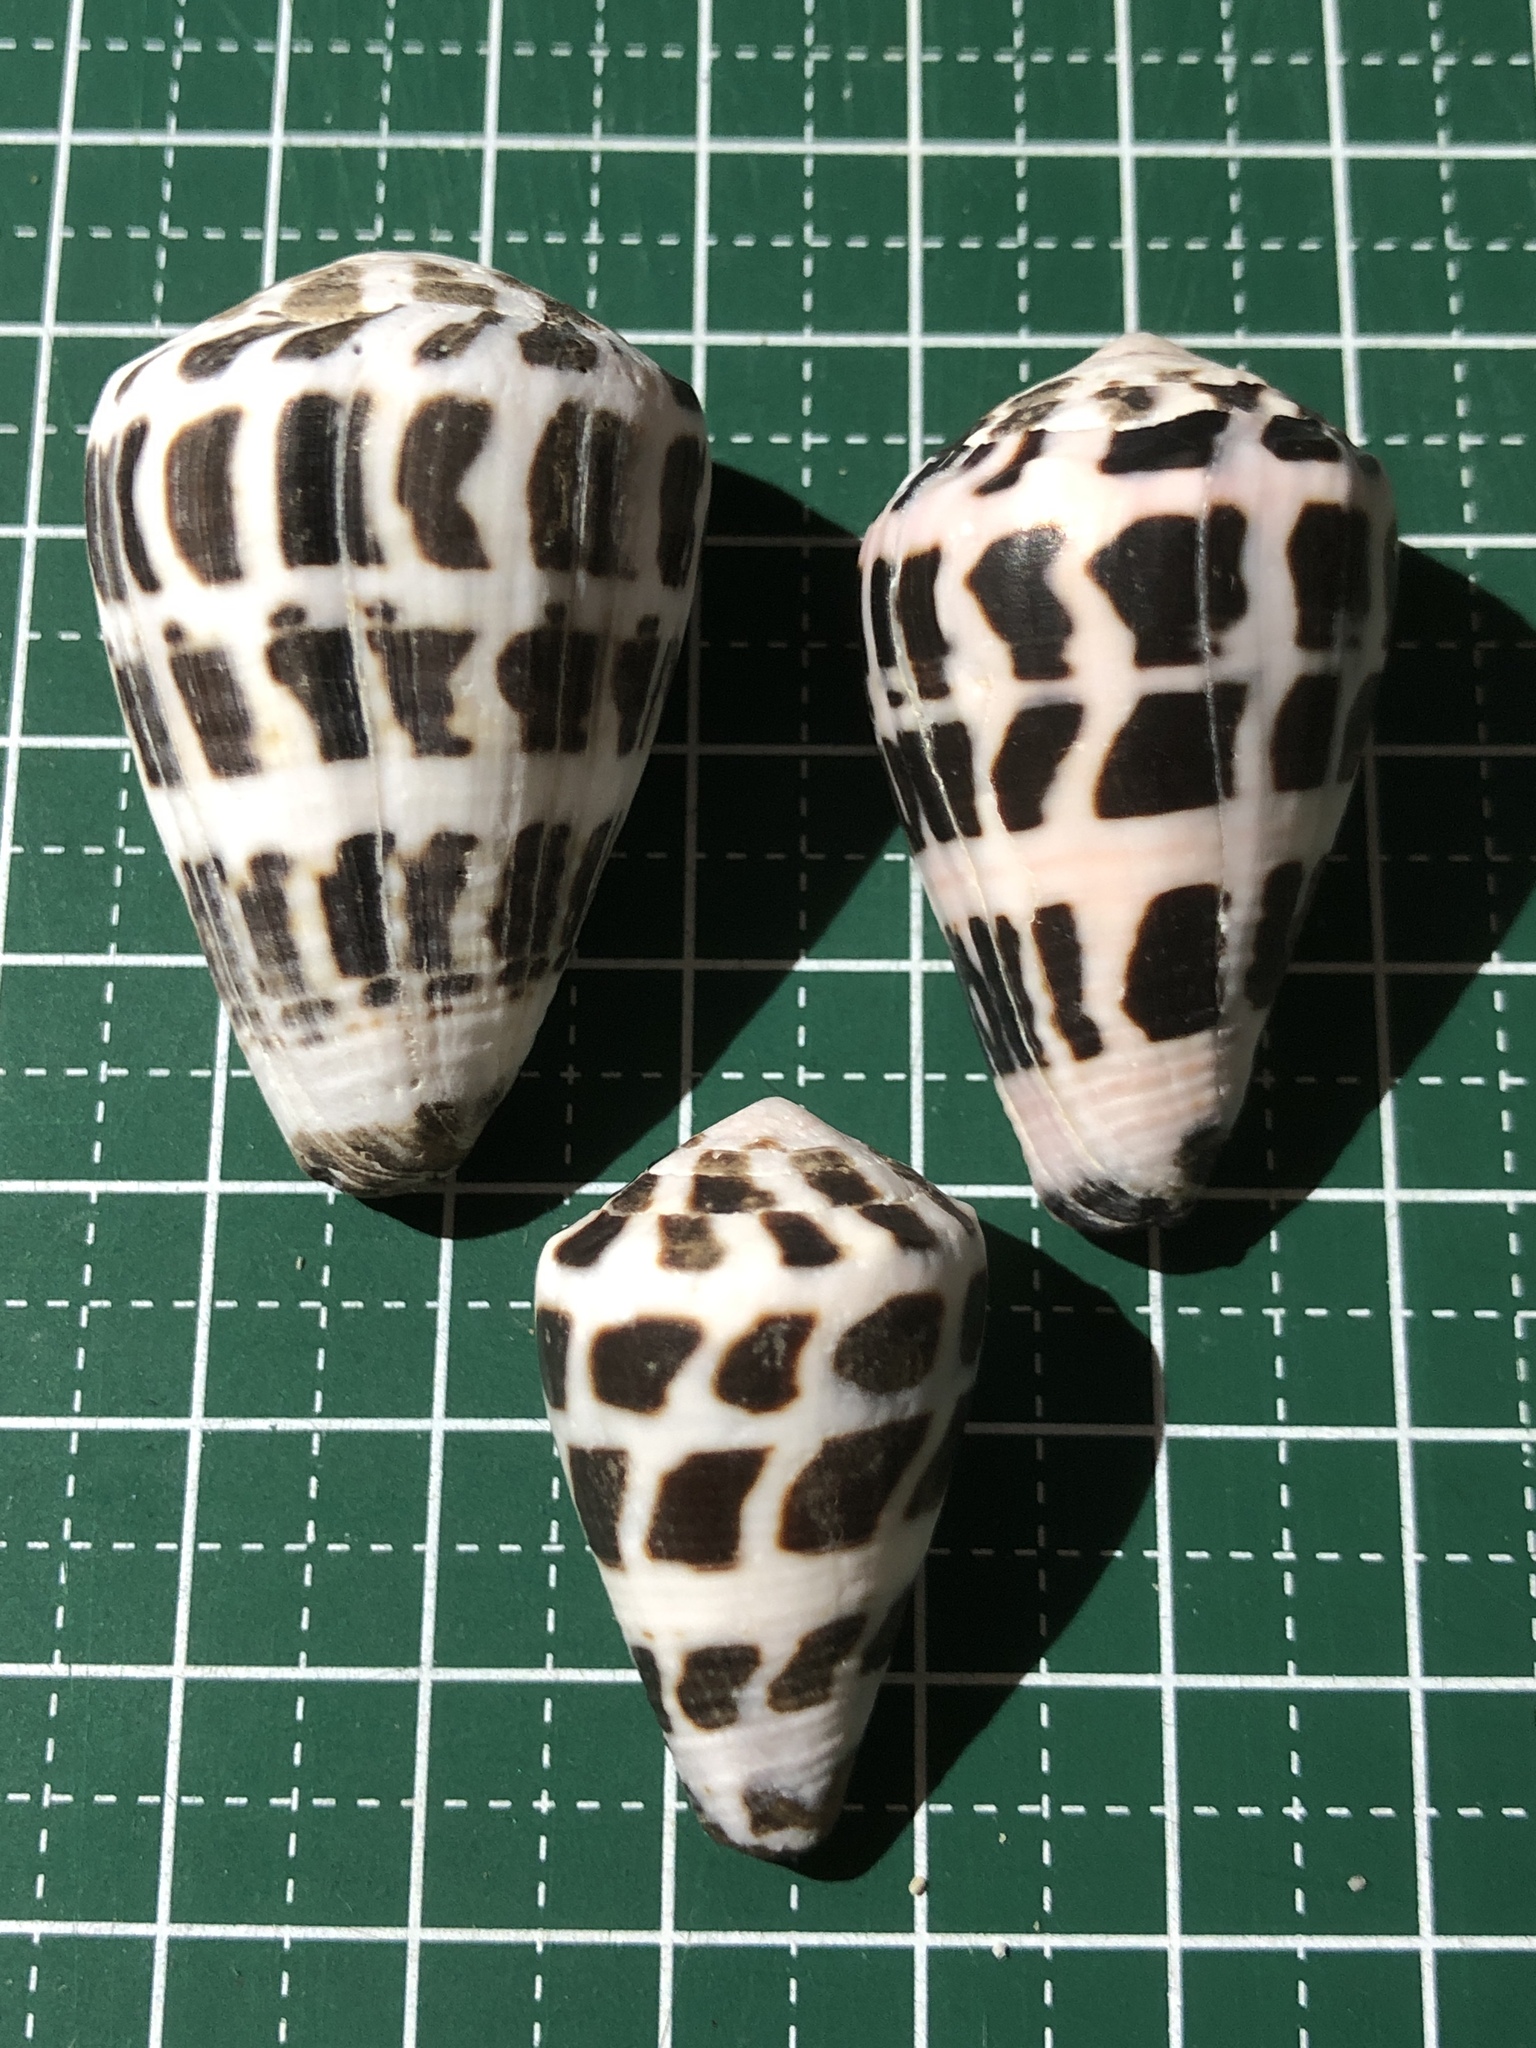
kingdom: Animalia
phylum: Mollusca
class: Gastropoda
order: Neogastropoda
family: Conidae
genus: Conus
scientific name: Conus ebraeus
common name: Hebrew cone
